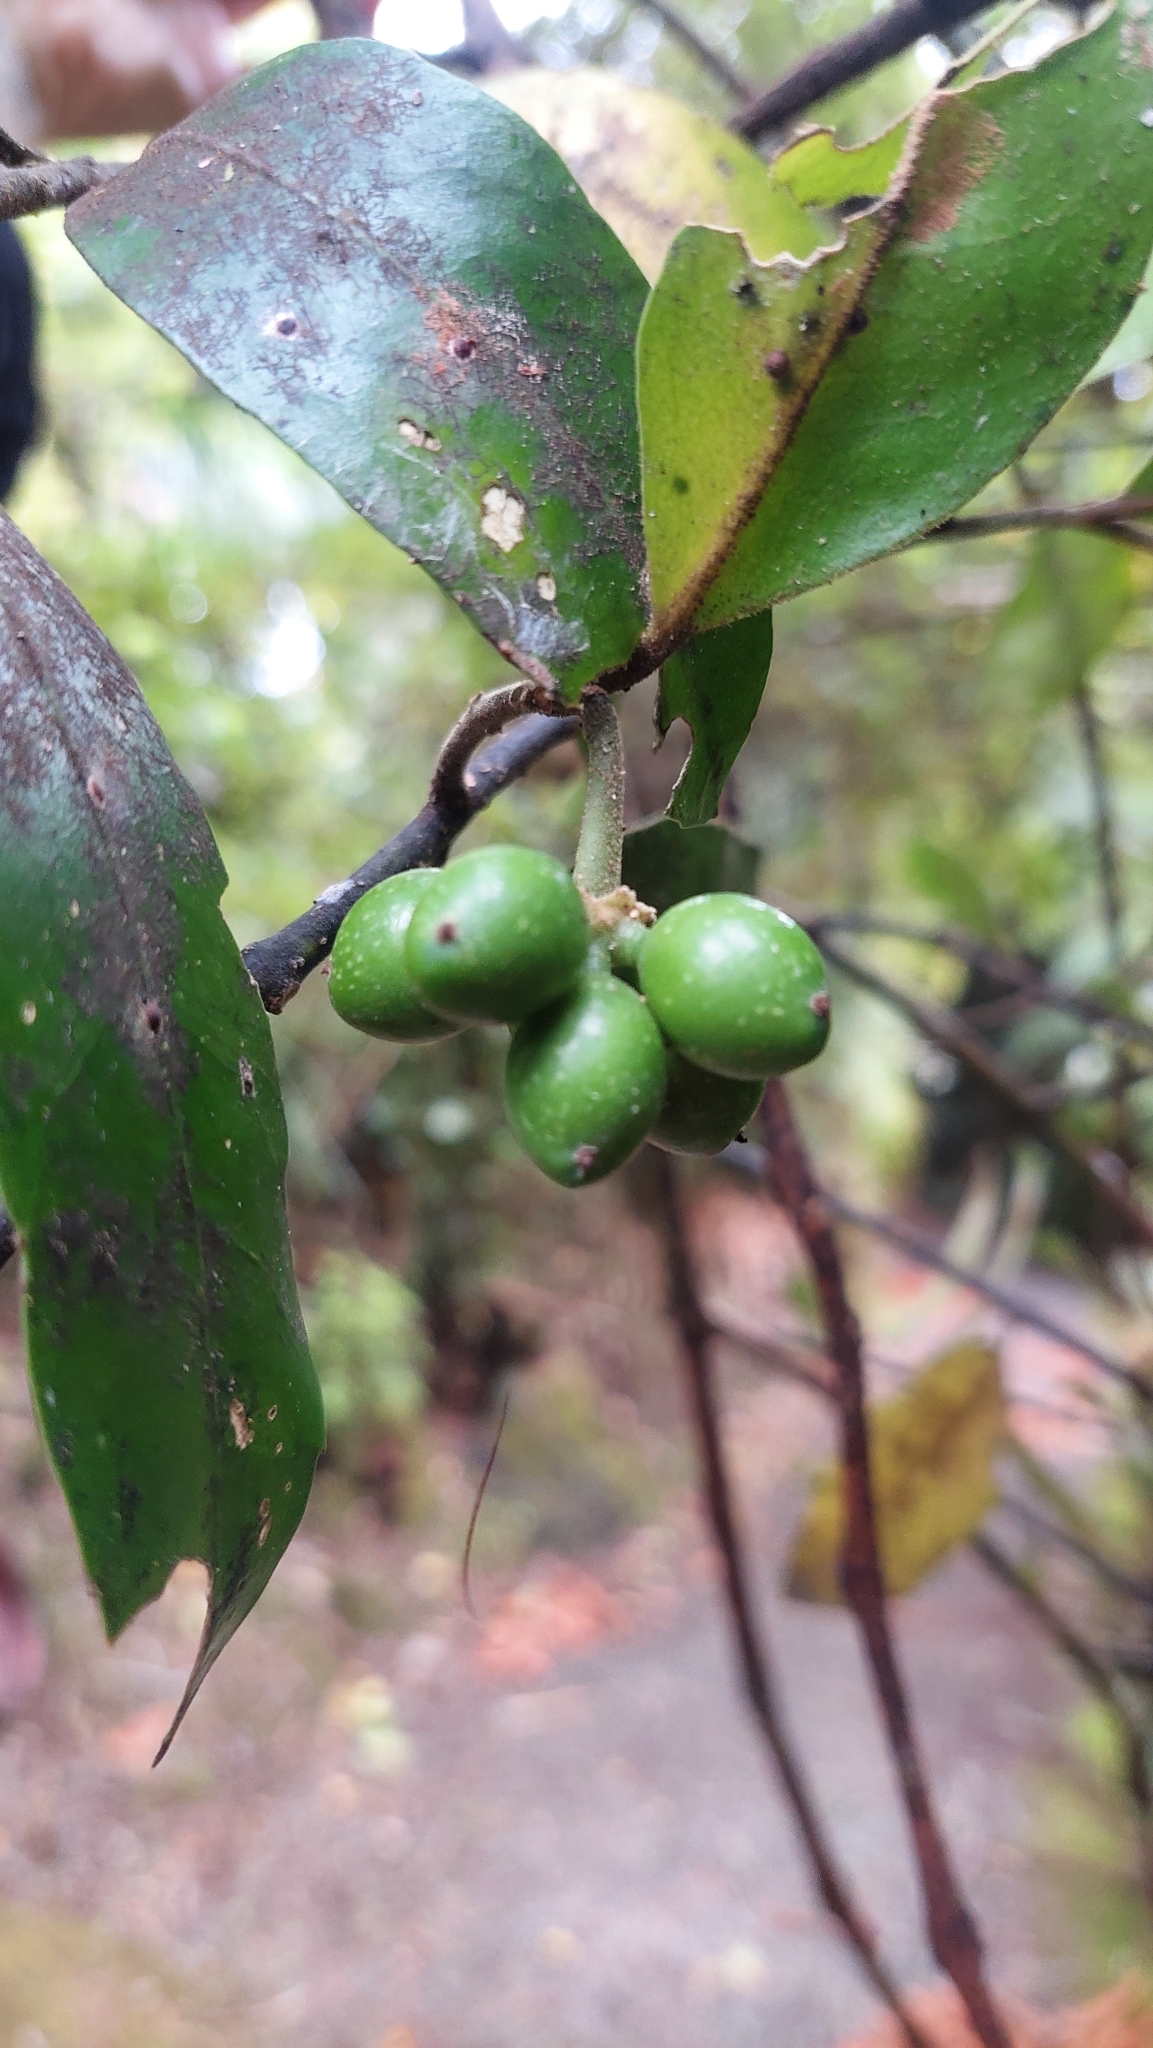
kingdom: Plantae
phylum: Tracheophyta
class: Magnoliopsida
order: Laurales
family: Monimiaceae
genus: Hedycarya
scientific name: Hedycarya arborea
